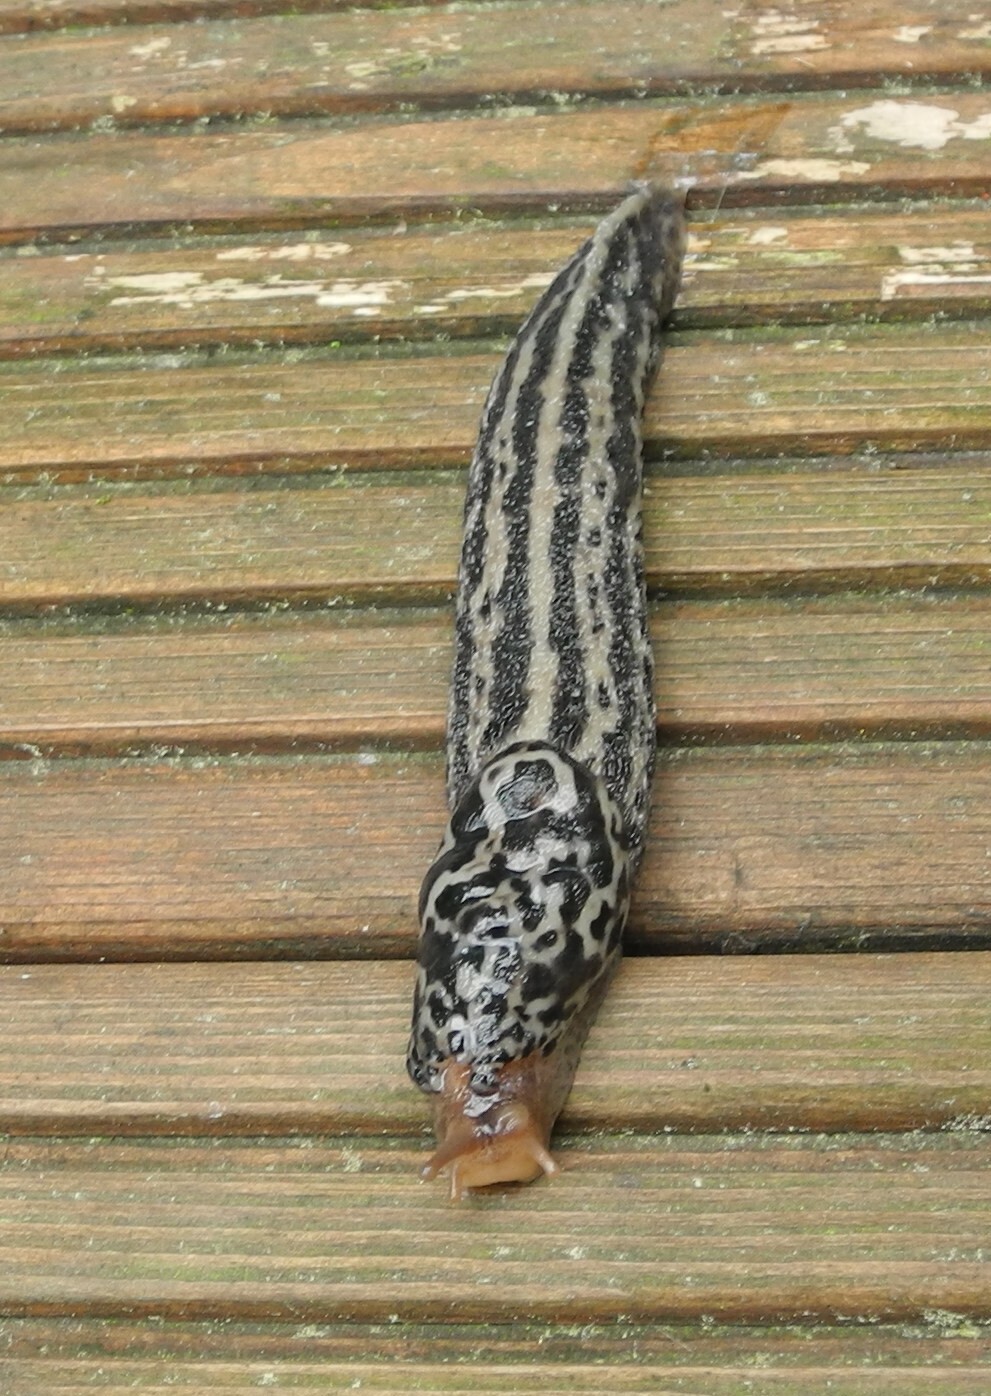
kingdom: Animalia
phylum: Mollusca
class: Gastropoda
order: Stylommatophora
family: Limacidae
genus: Limax
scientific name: Limax maximus
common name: Great grey slug
